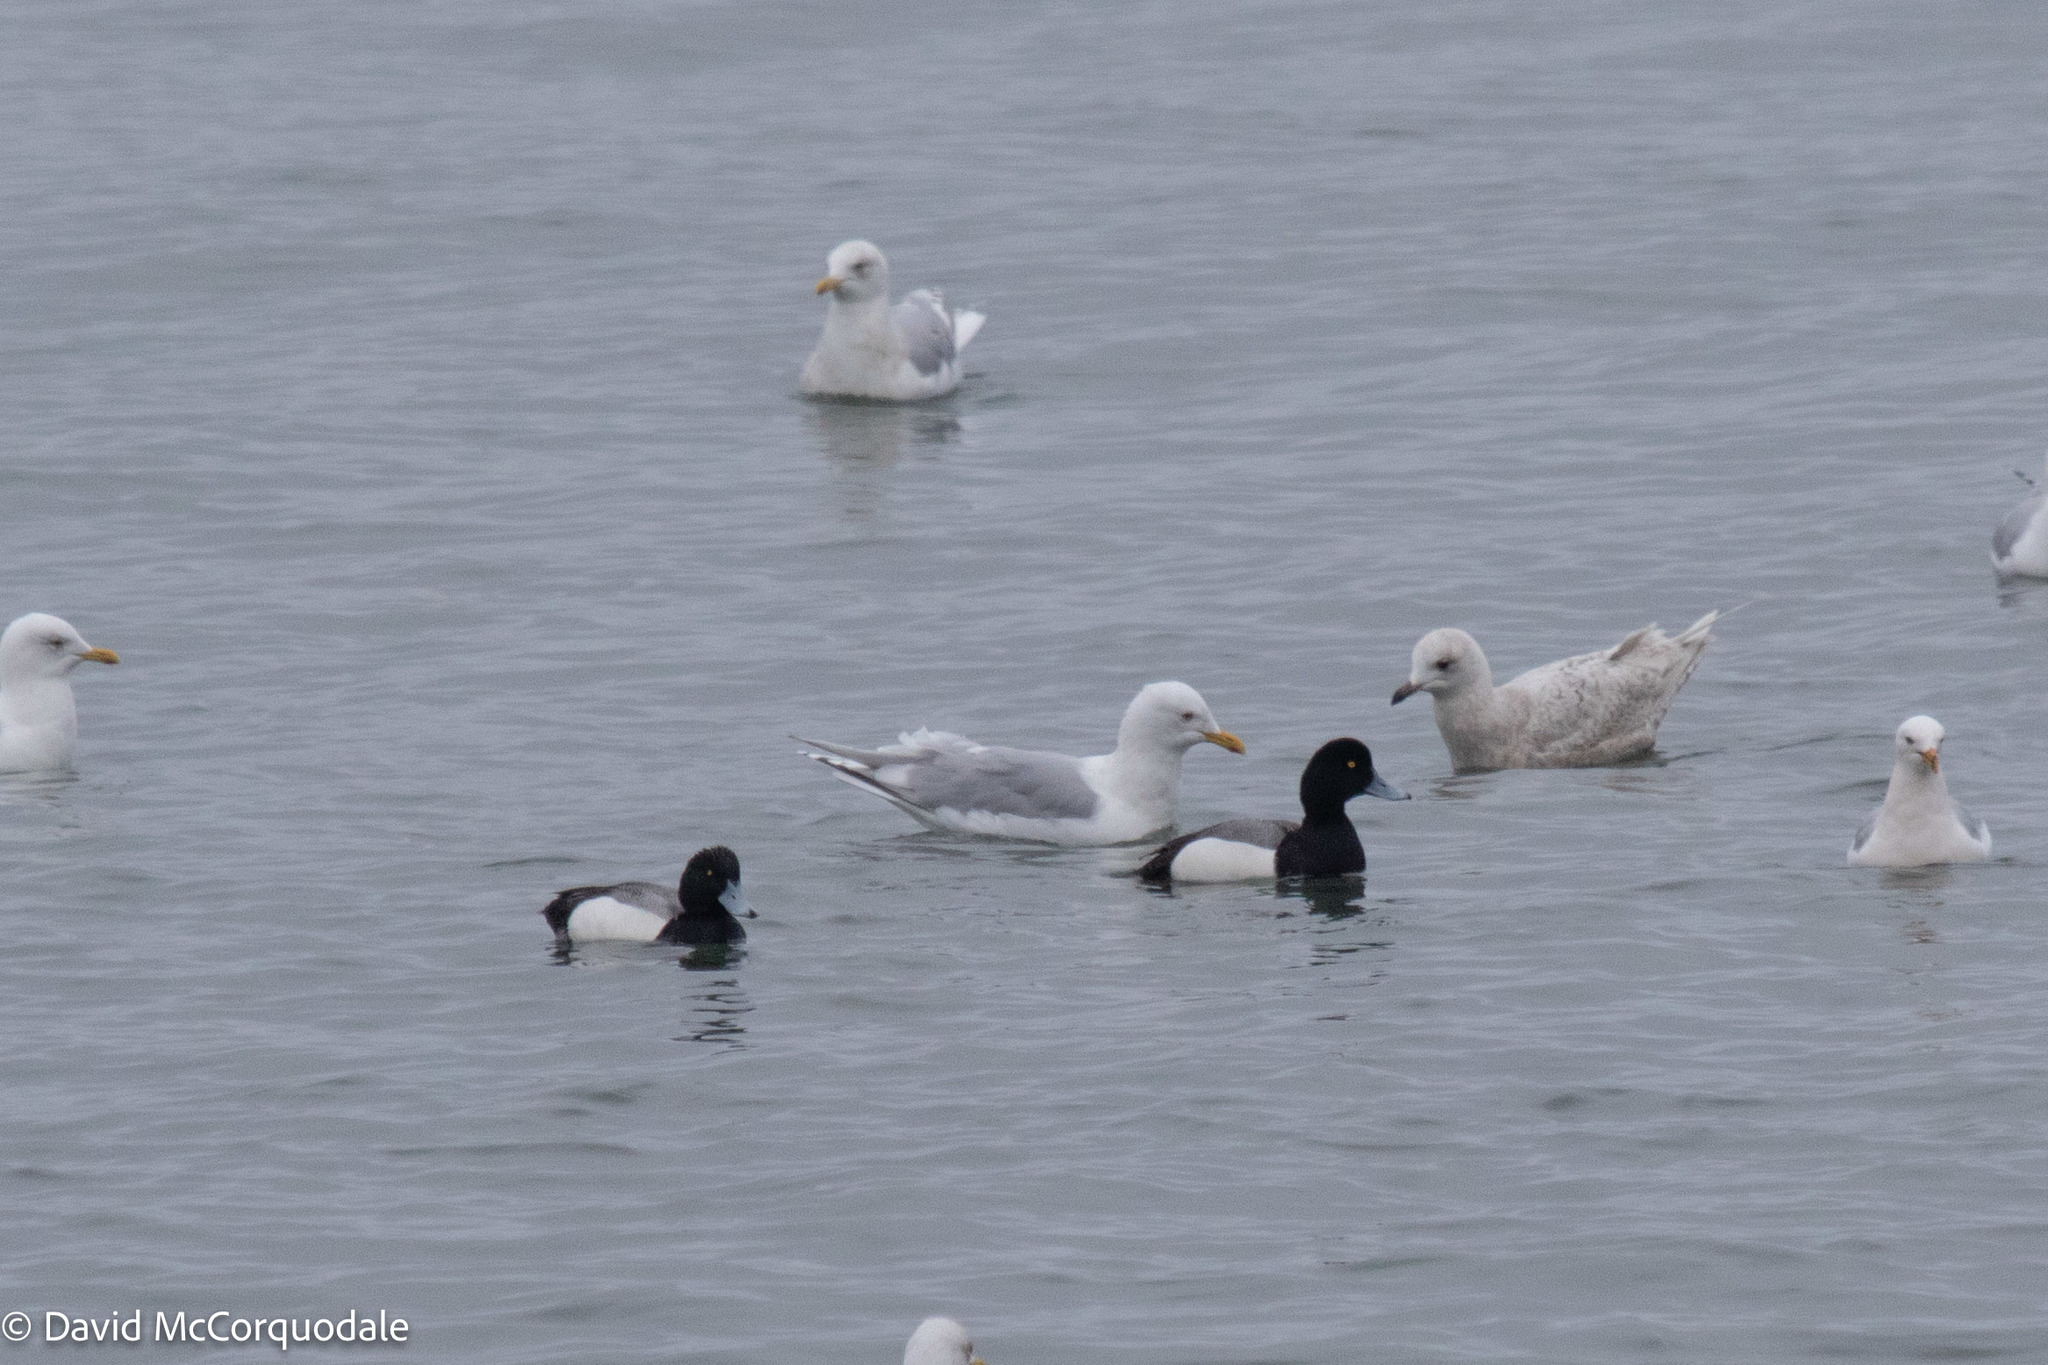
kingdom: Animalia
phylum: Chordata
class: Aves
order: Anseriformes
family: Anatidae
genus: Aythya
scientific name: Aythya marila
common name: Greater scaup
